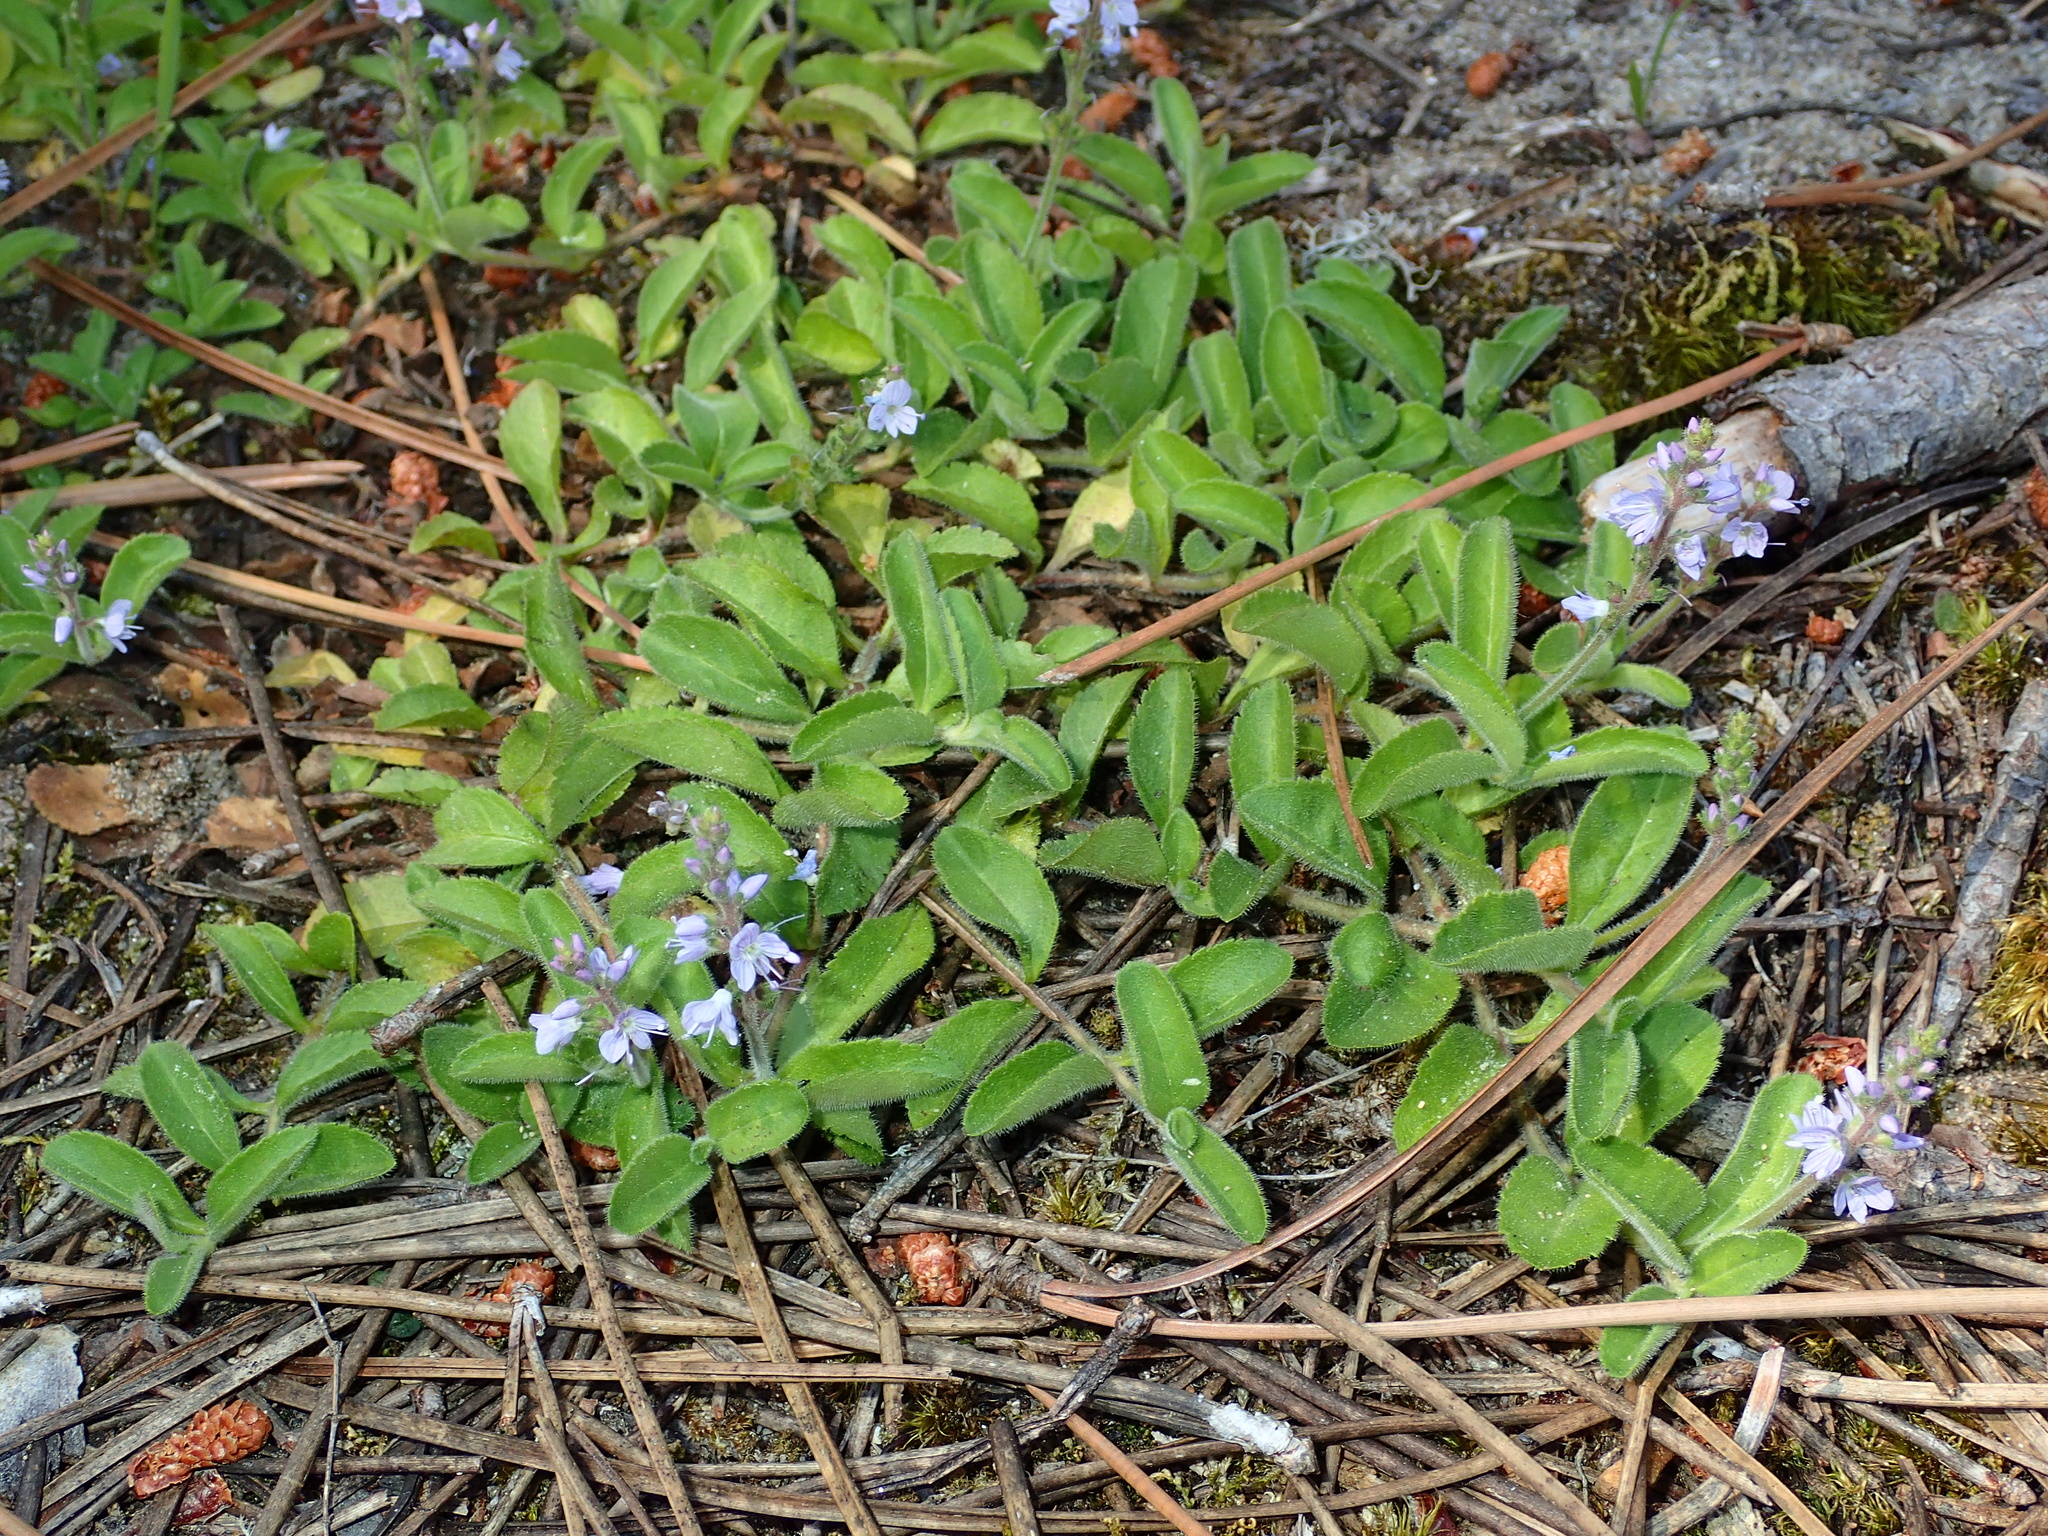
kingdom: Plantae
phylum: Tracheophyta
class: Magnoliopsida
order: Lamiales
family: Plantaginaceae
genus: Veronica
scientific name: Veronica officinalis
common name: Common speedwell
